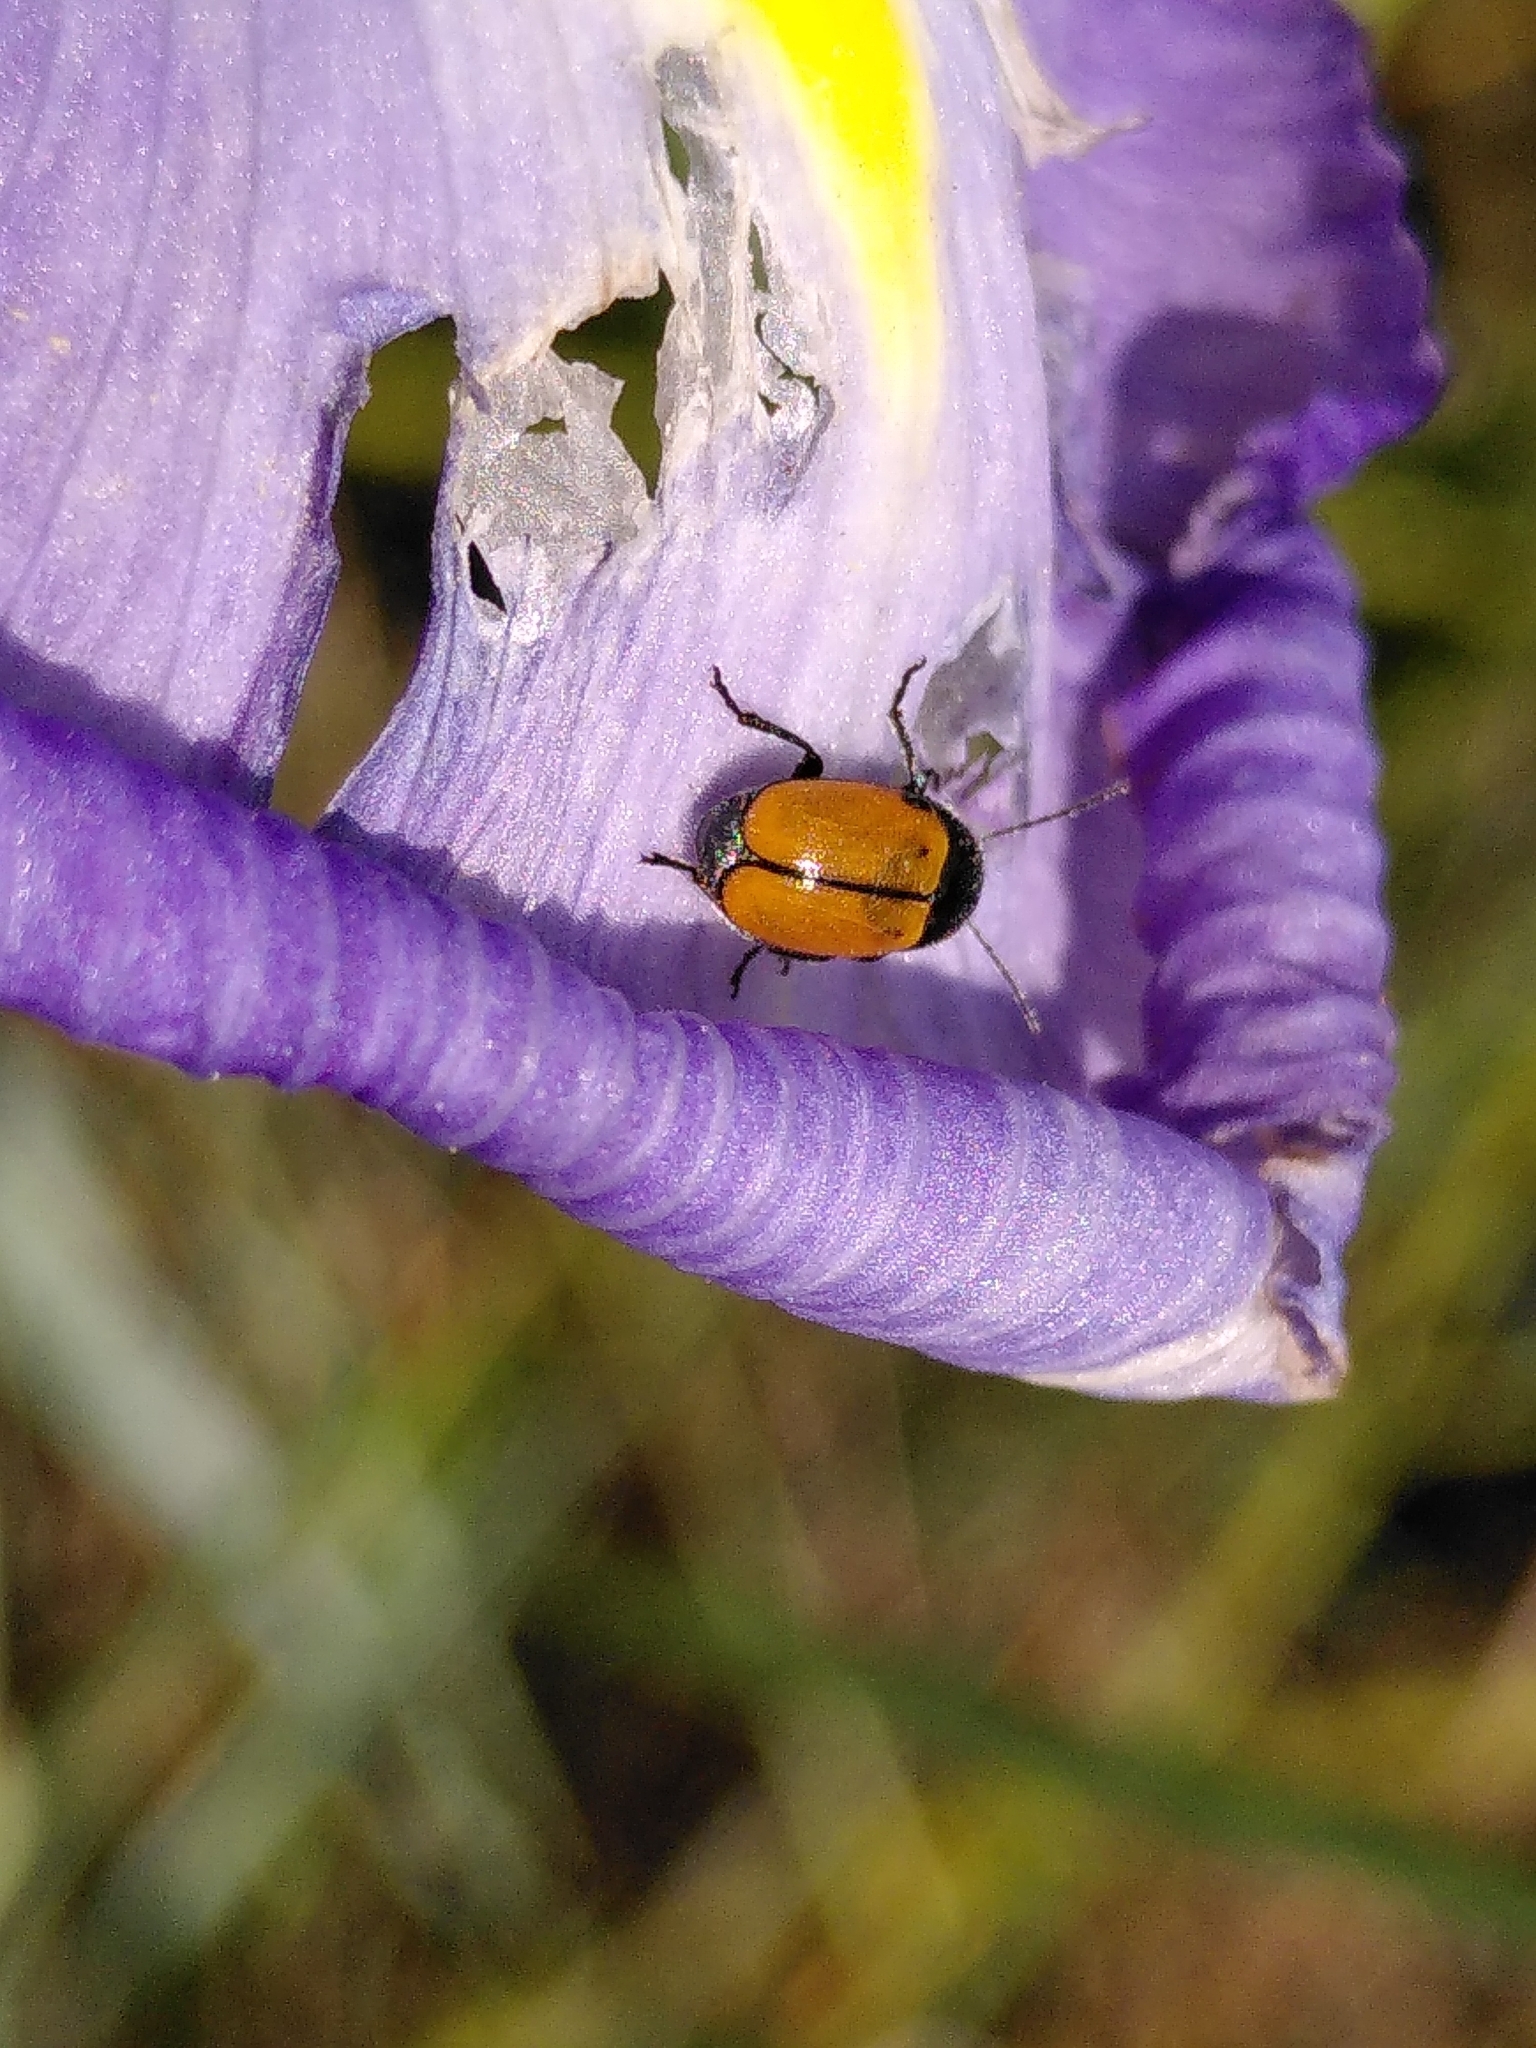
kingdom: Animalia
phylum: Arthropoda
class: Insecta
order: Coleoptera
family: Chrysomelidae
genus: Cryptocephalus
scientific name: Cryptocephalus rugicollis
